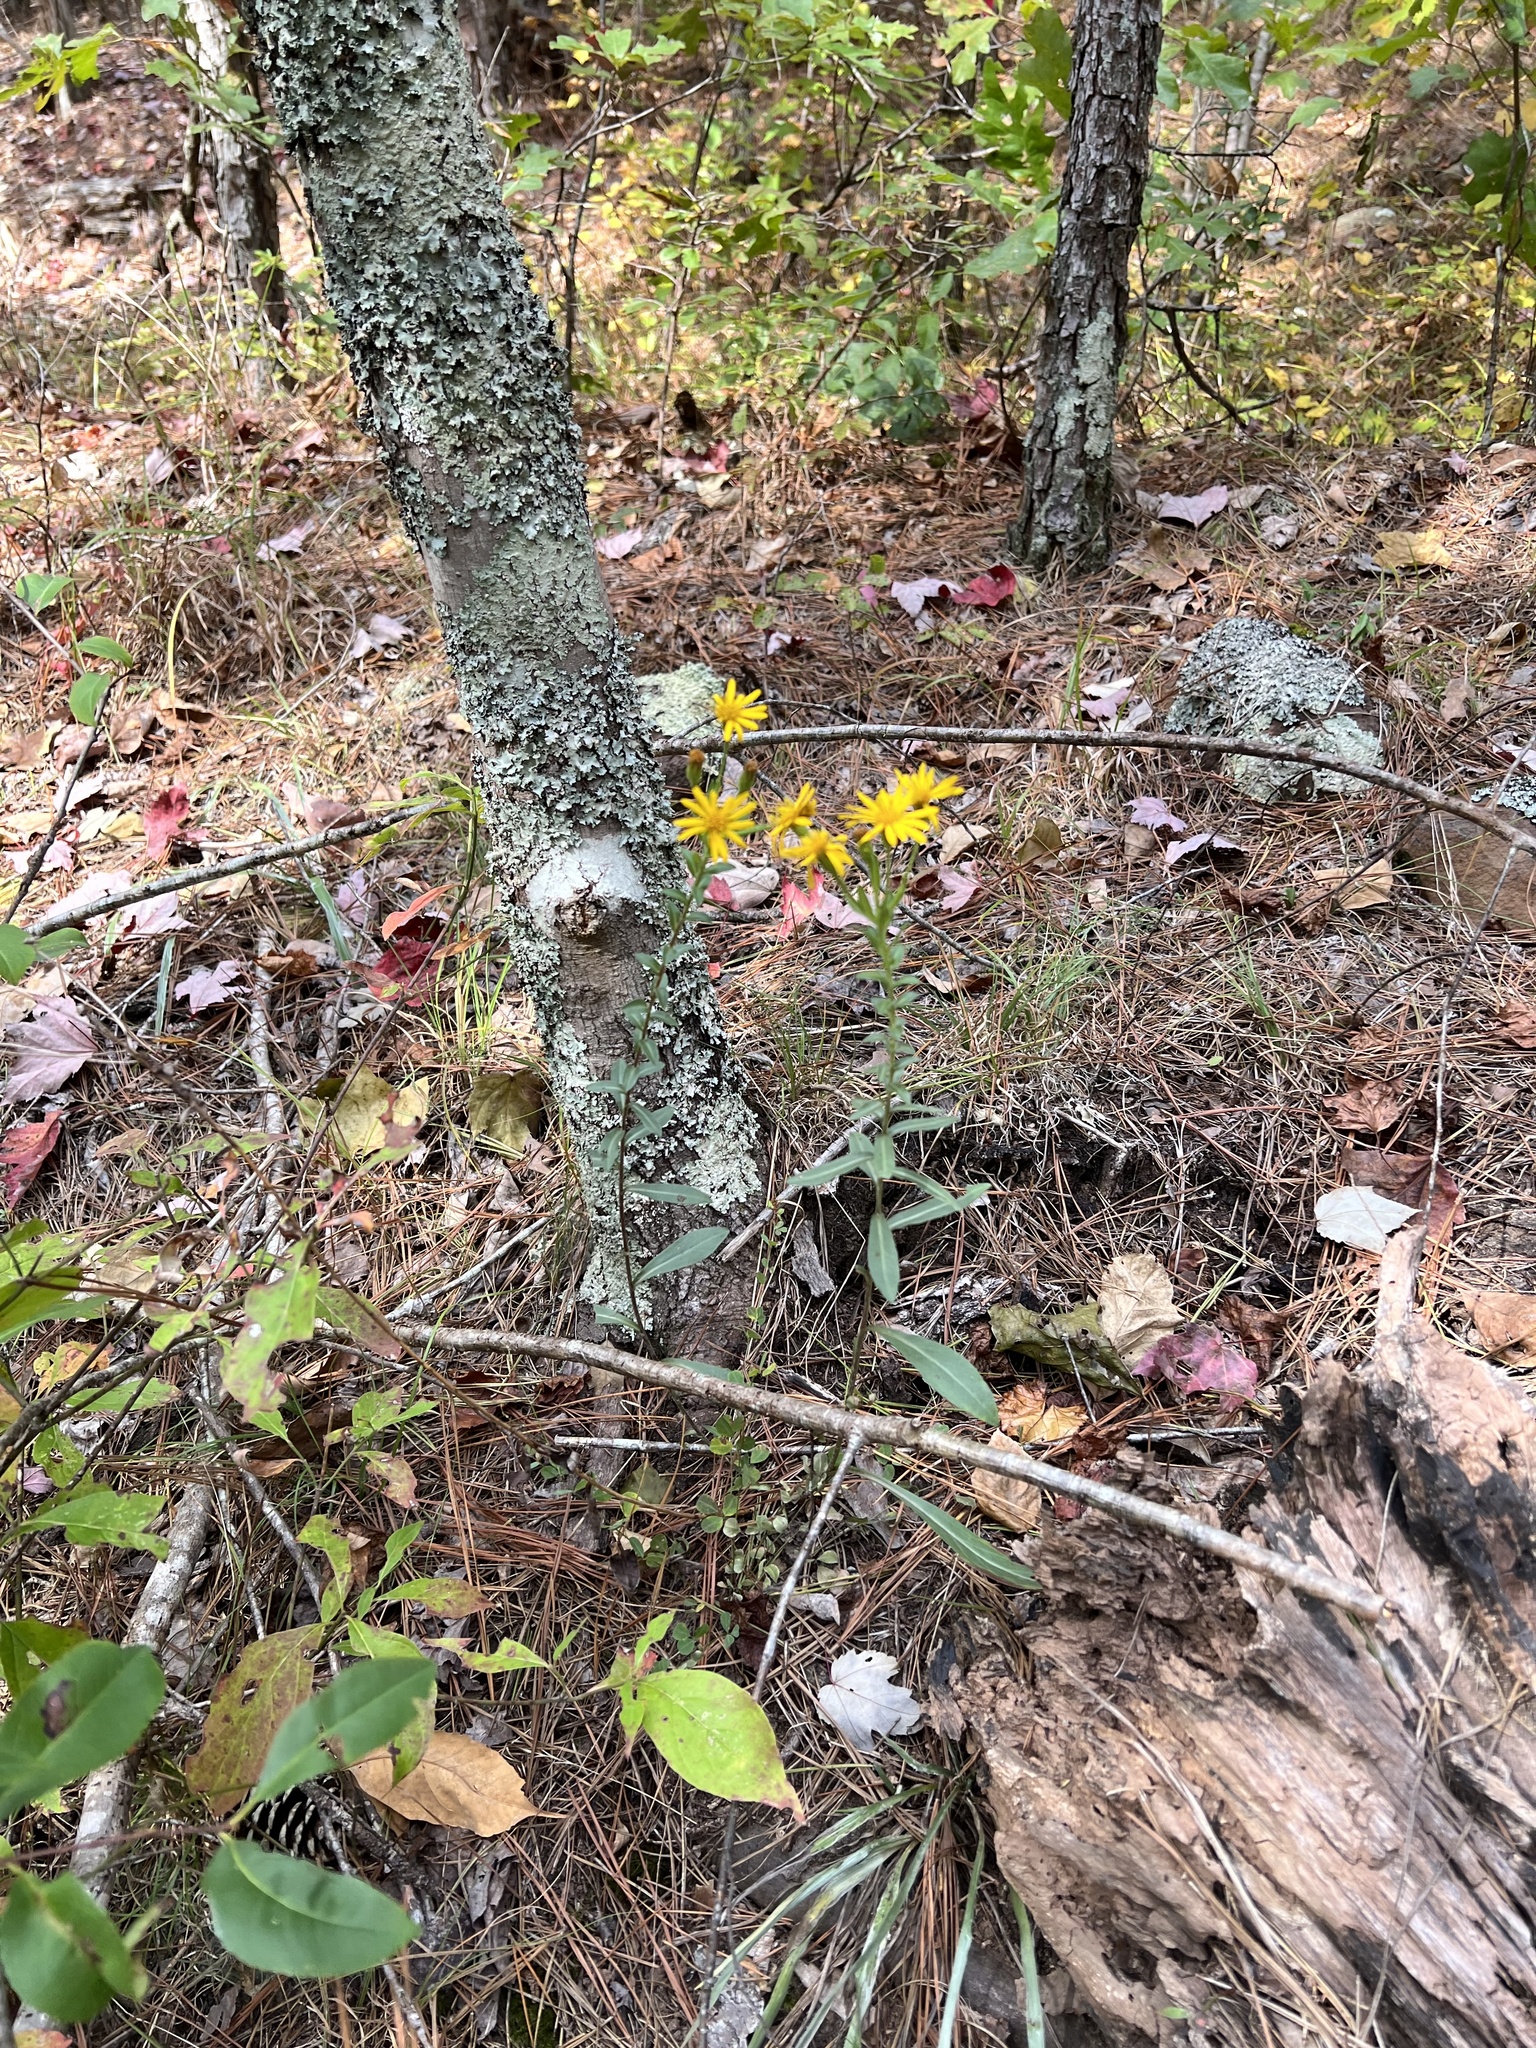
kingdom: Plantae
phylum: Tracheophyta
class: Magnoliopsida
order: Asterales
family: Asteraceae
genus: Chrysopsis
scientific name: Chrysopsis mariana
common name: Maryland golden-aster
